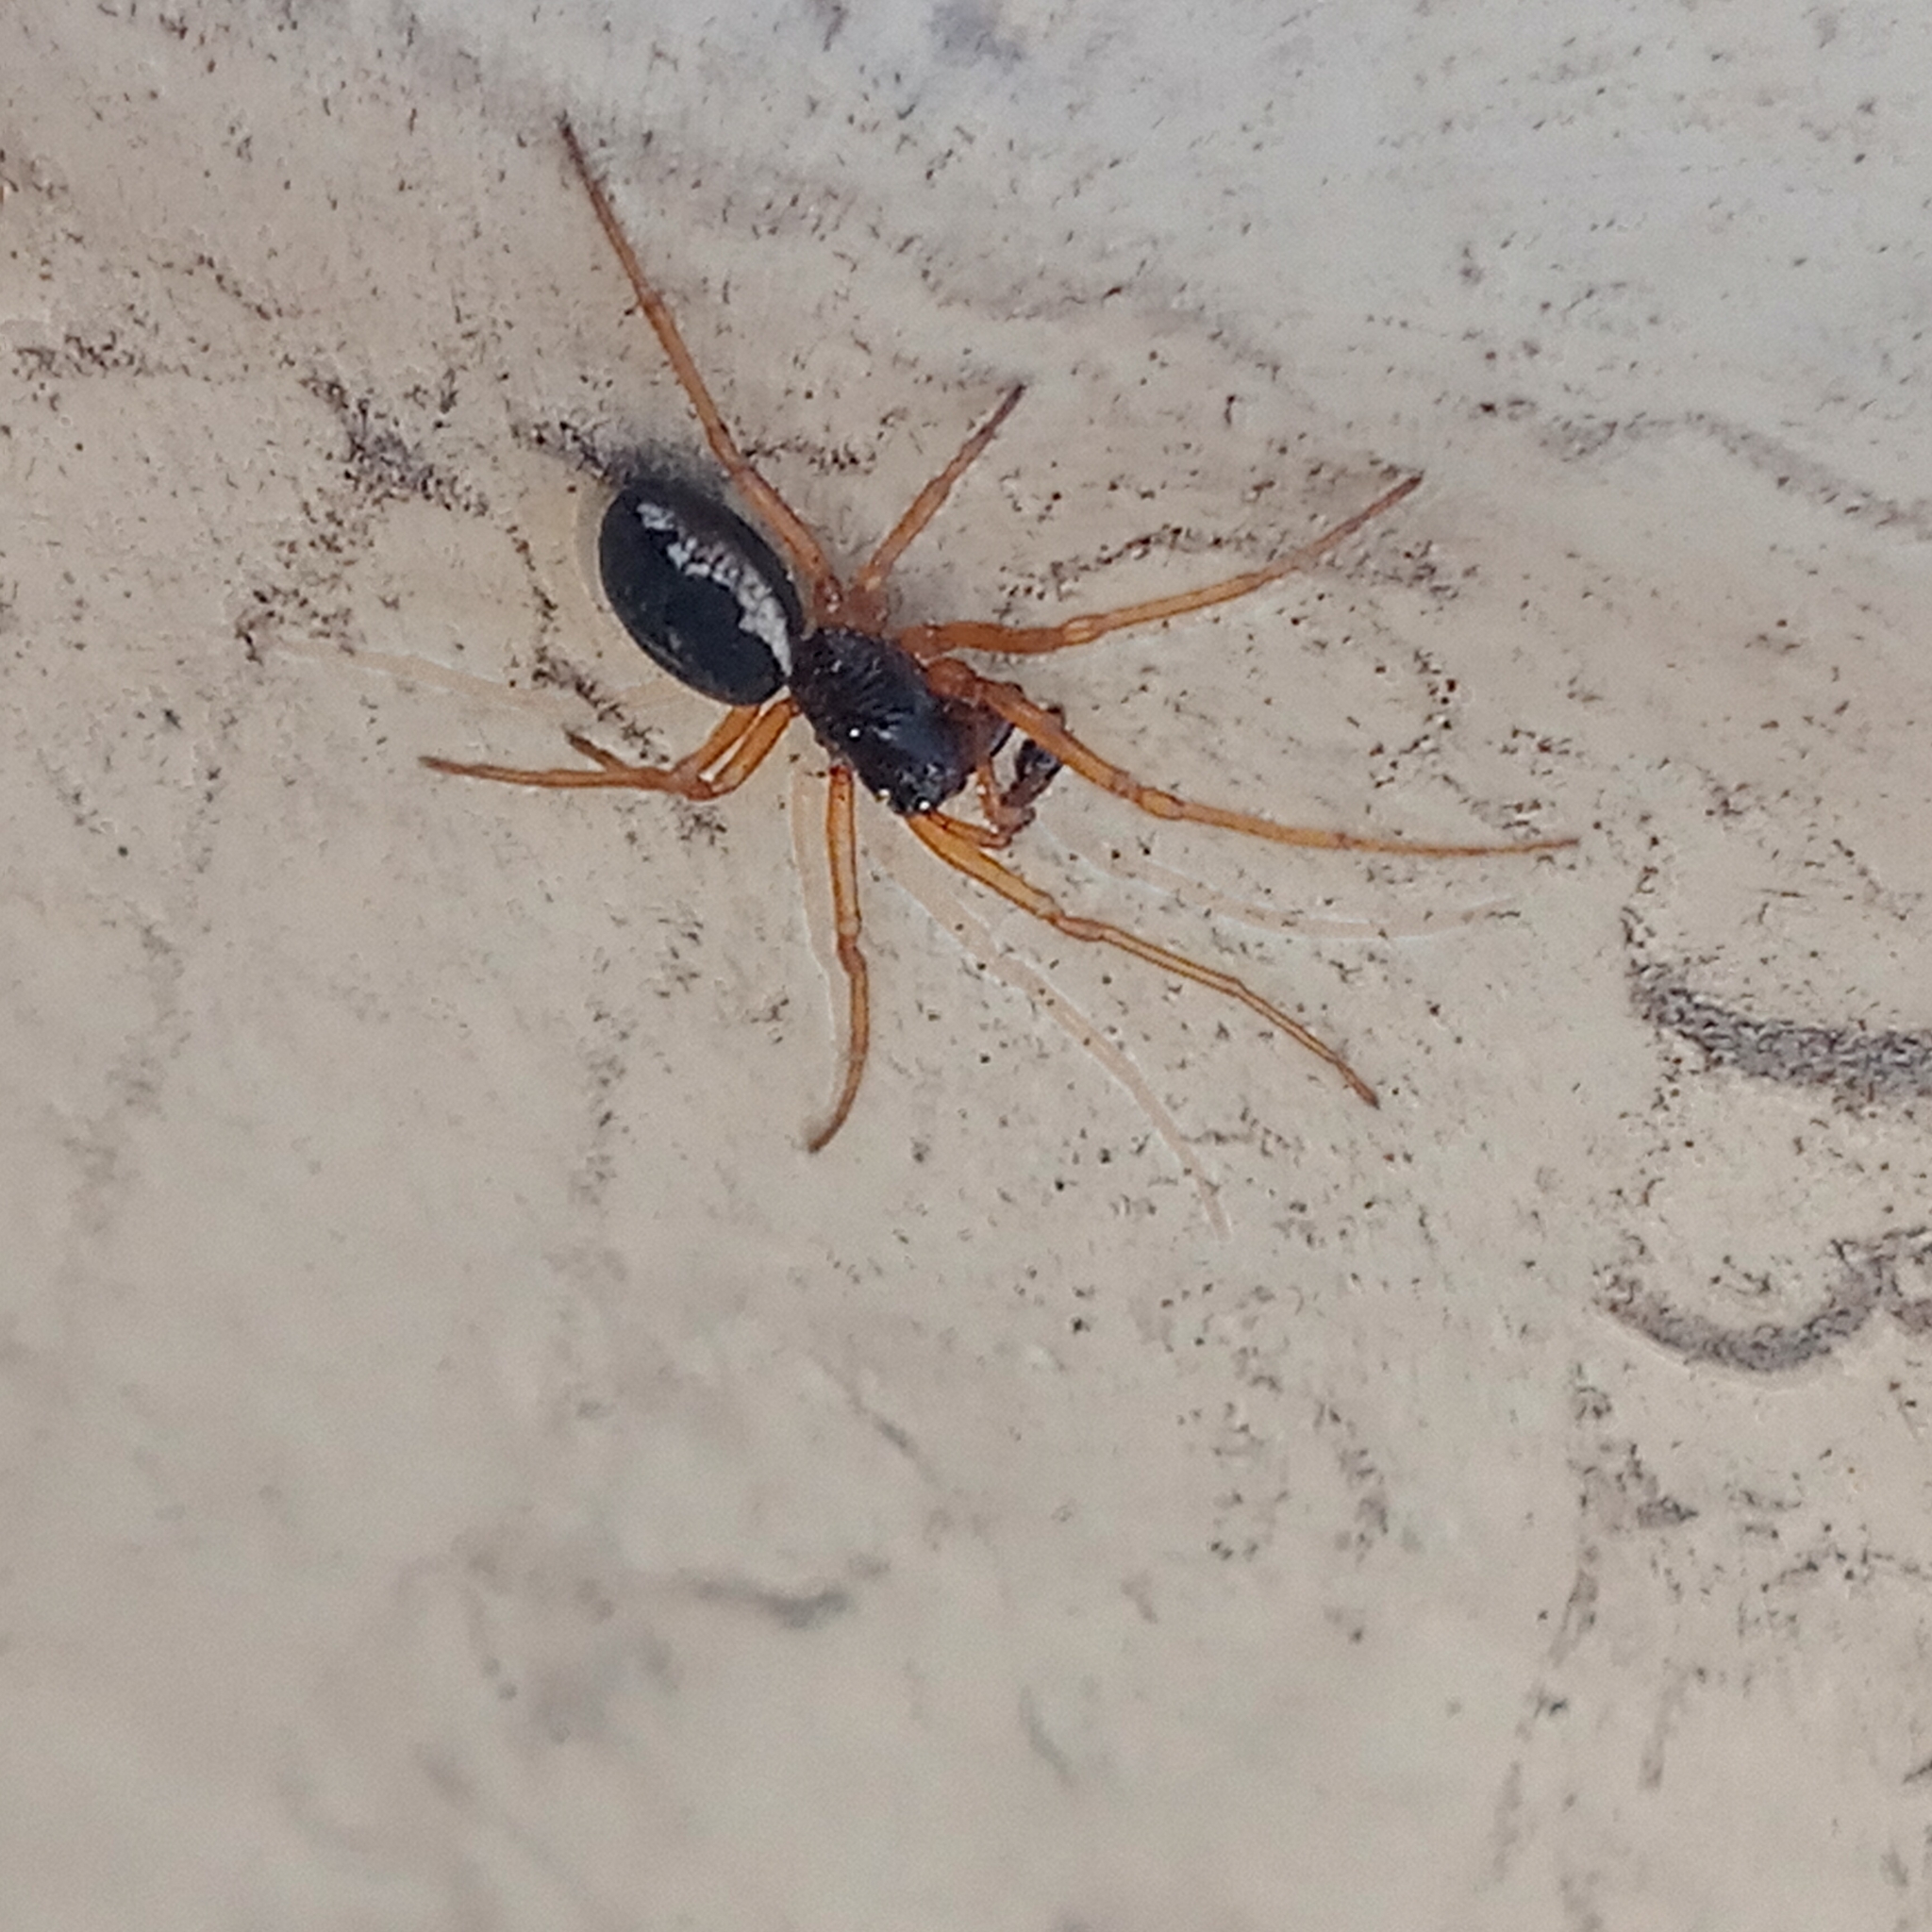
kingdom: Animalia
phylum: Arthropoda
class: Arachnida
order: Araneae
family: Tetragnathidae
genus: Pachygnatha
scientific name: Pachygnatha degeeri
